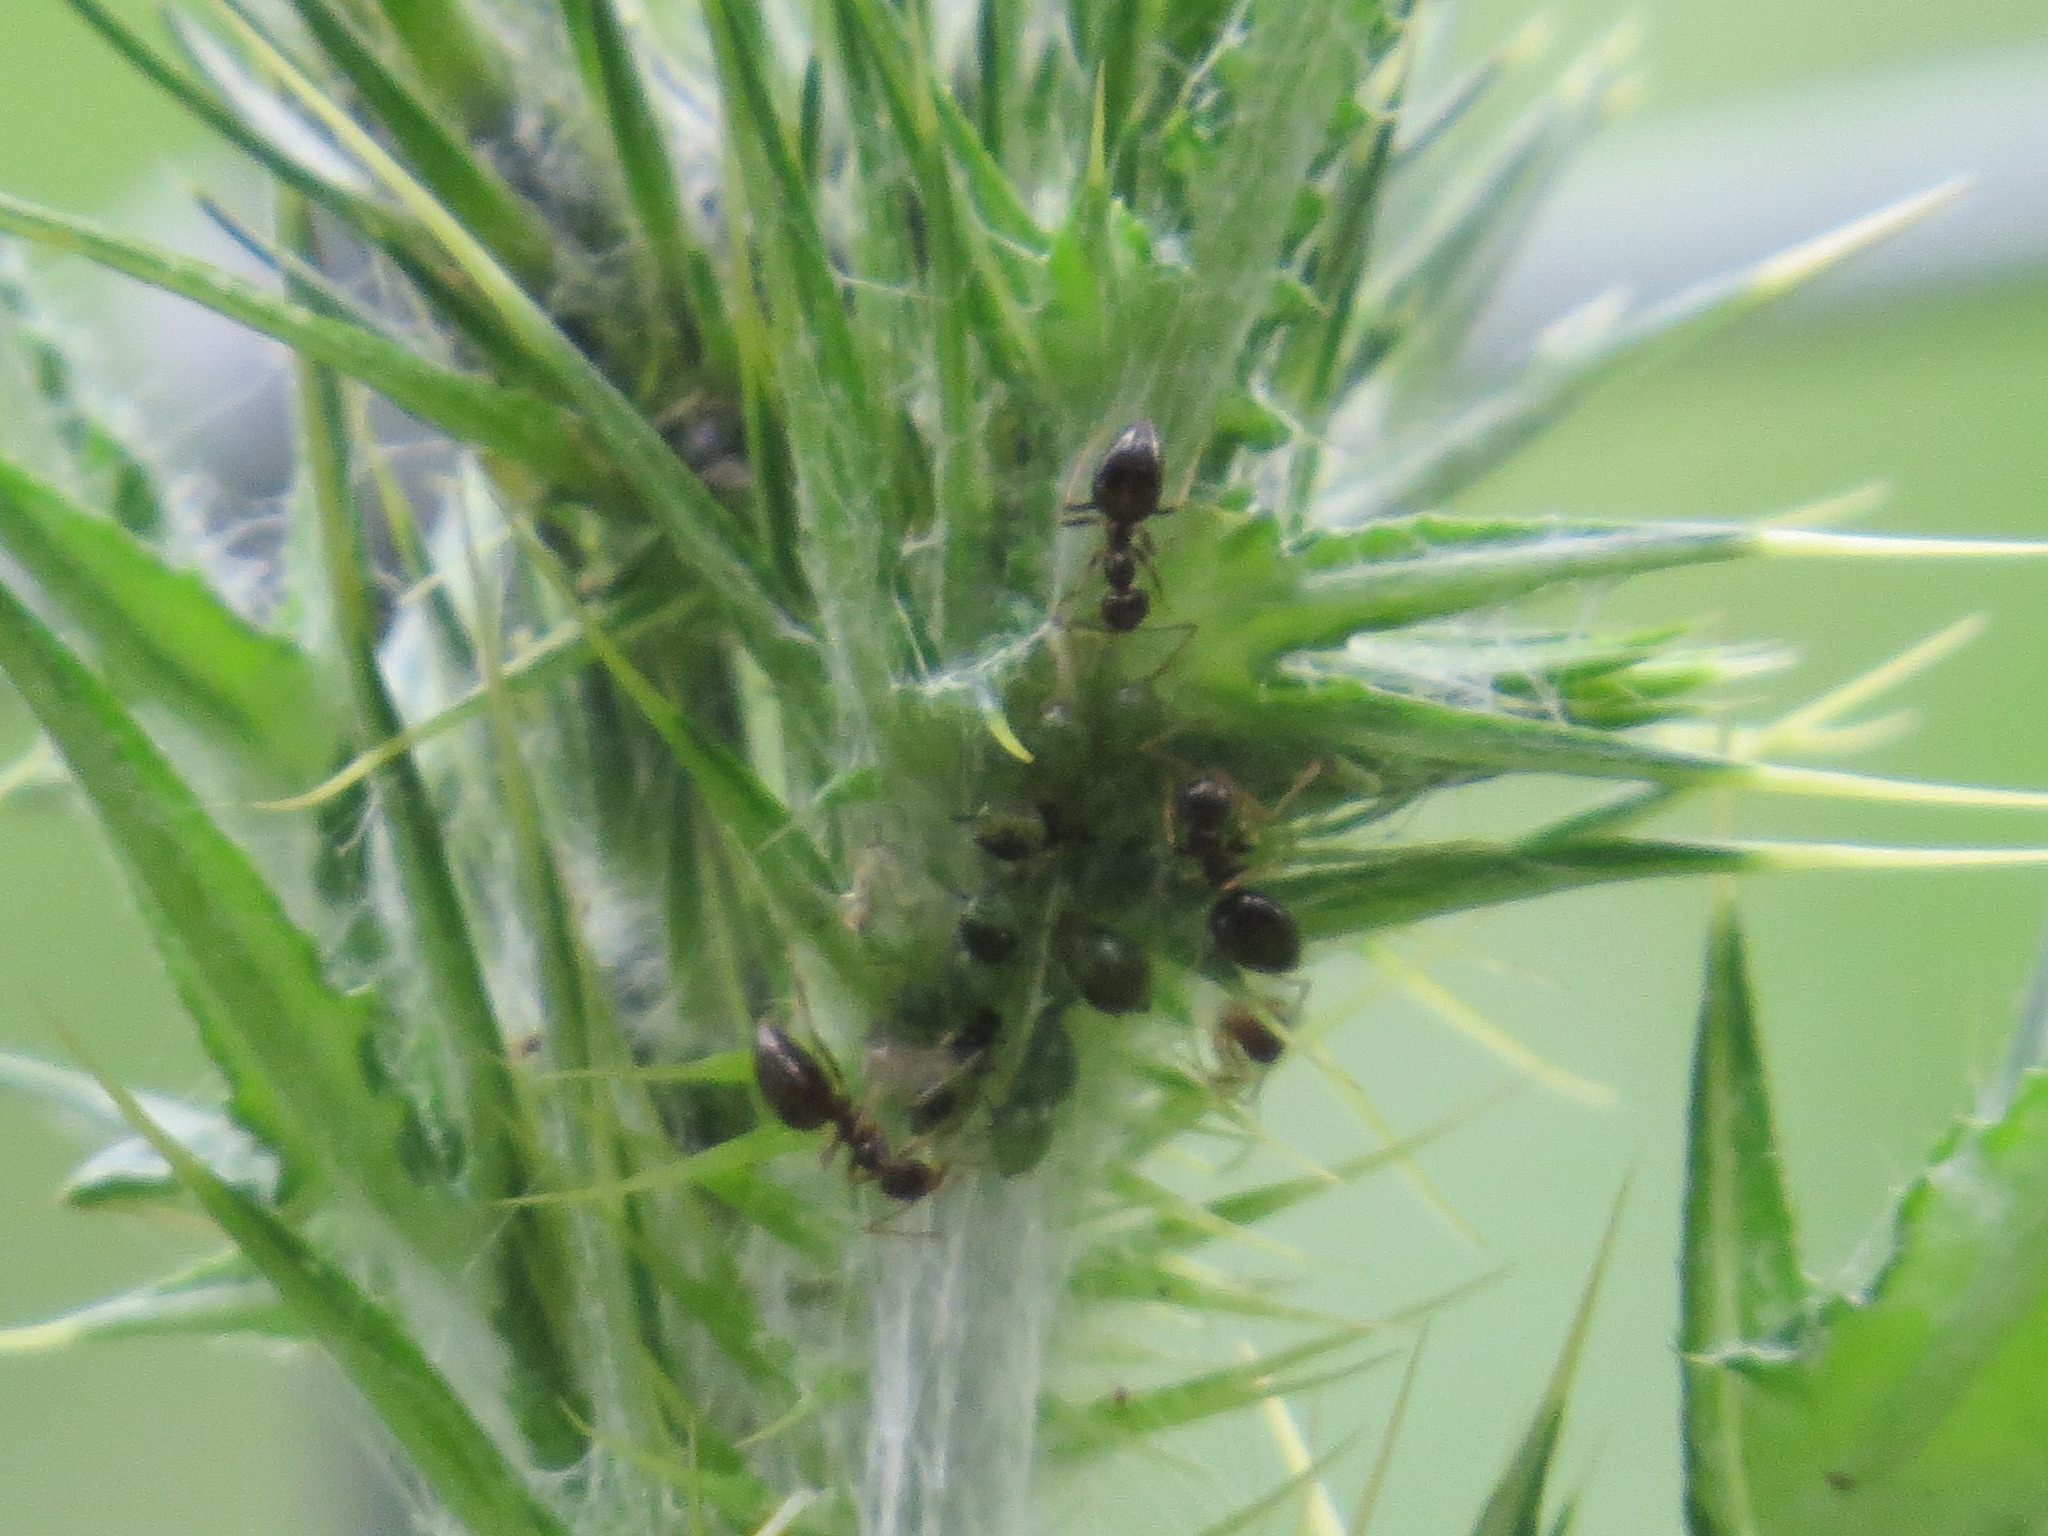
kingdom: Animalia
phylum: Arthropoda
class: Insecta
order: Hymenoptera
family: Formicidae
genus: Prenolepis
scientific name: Prenolepis imparis
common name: Small honey ant
